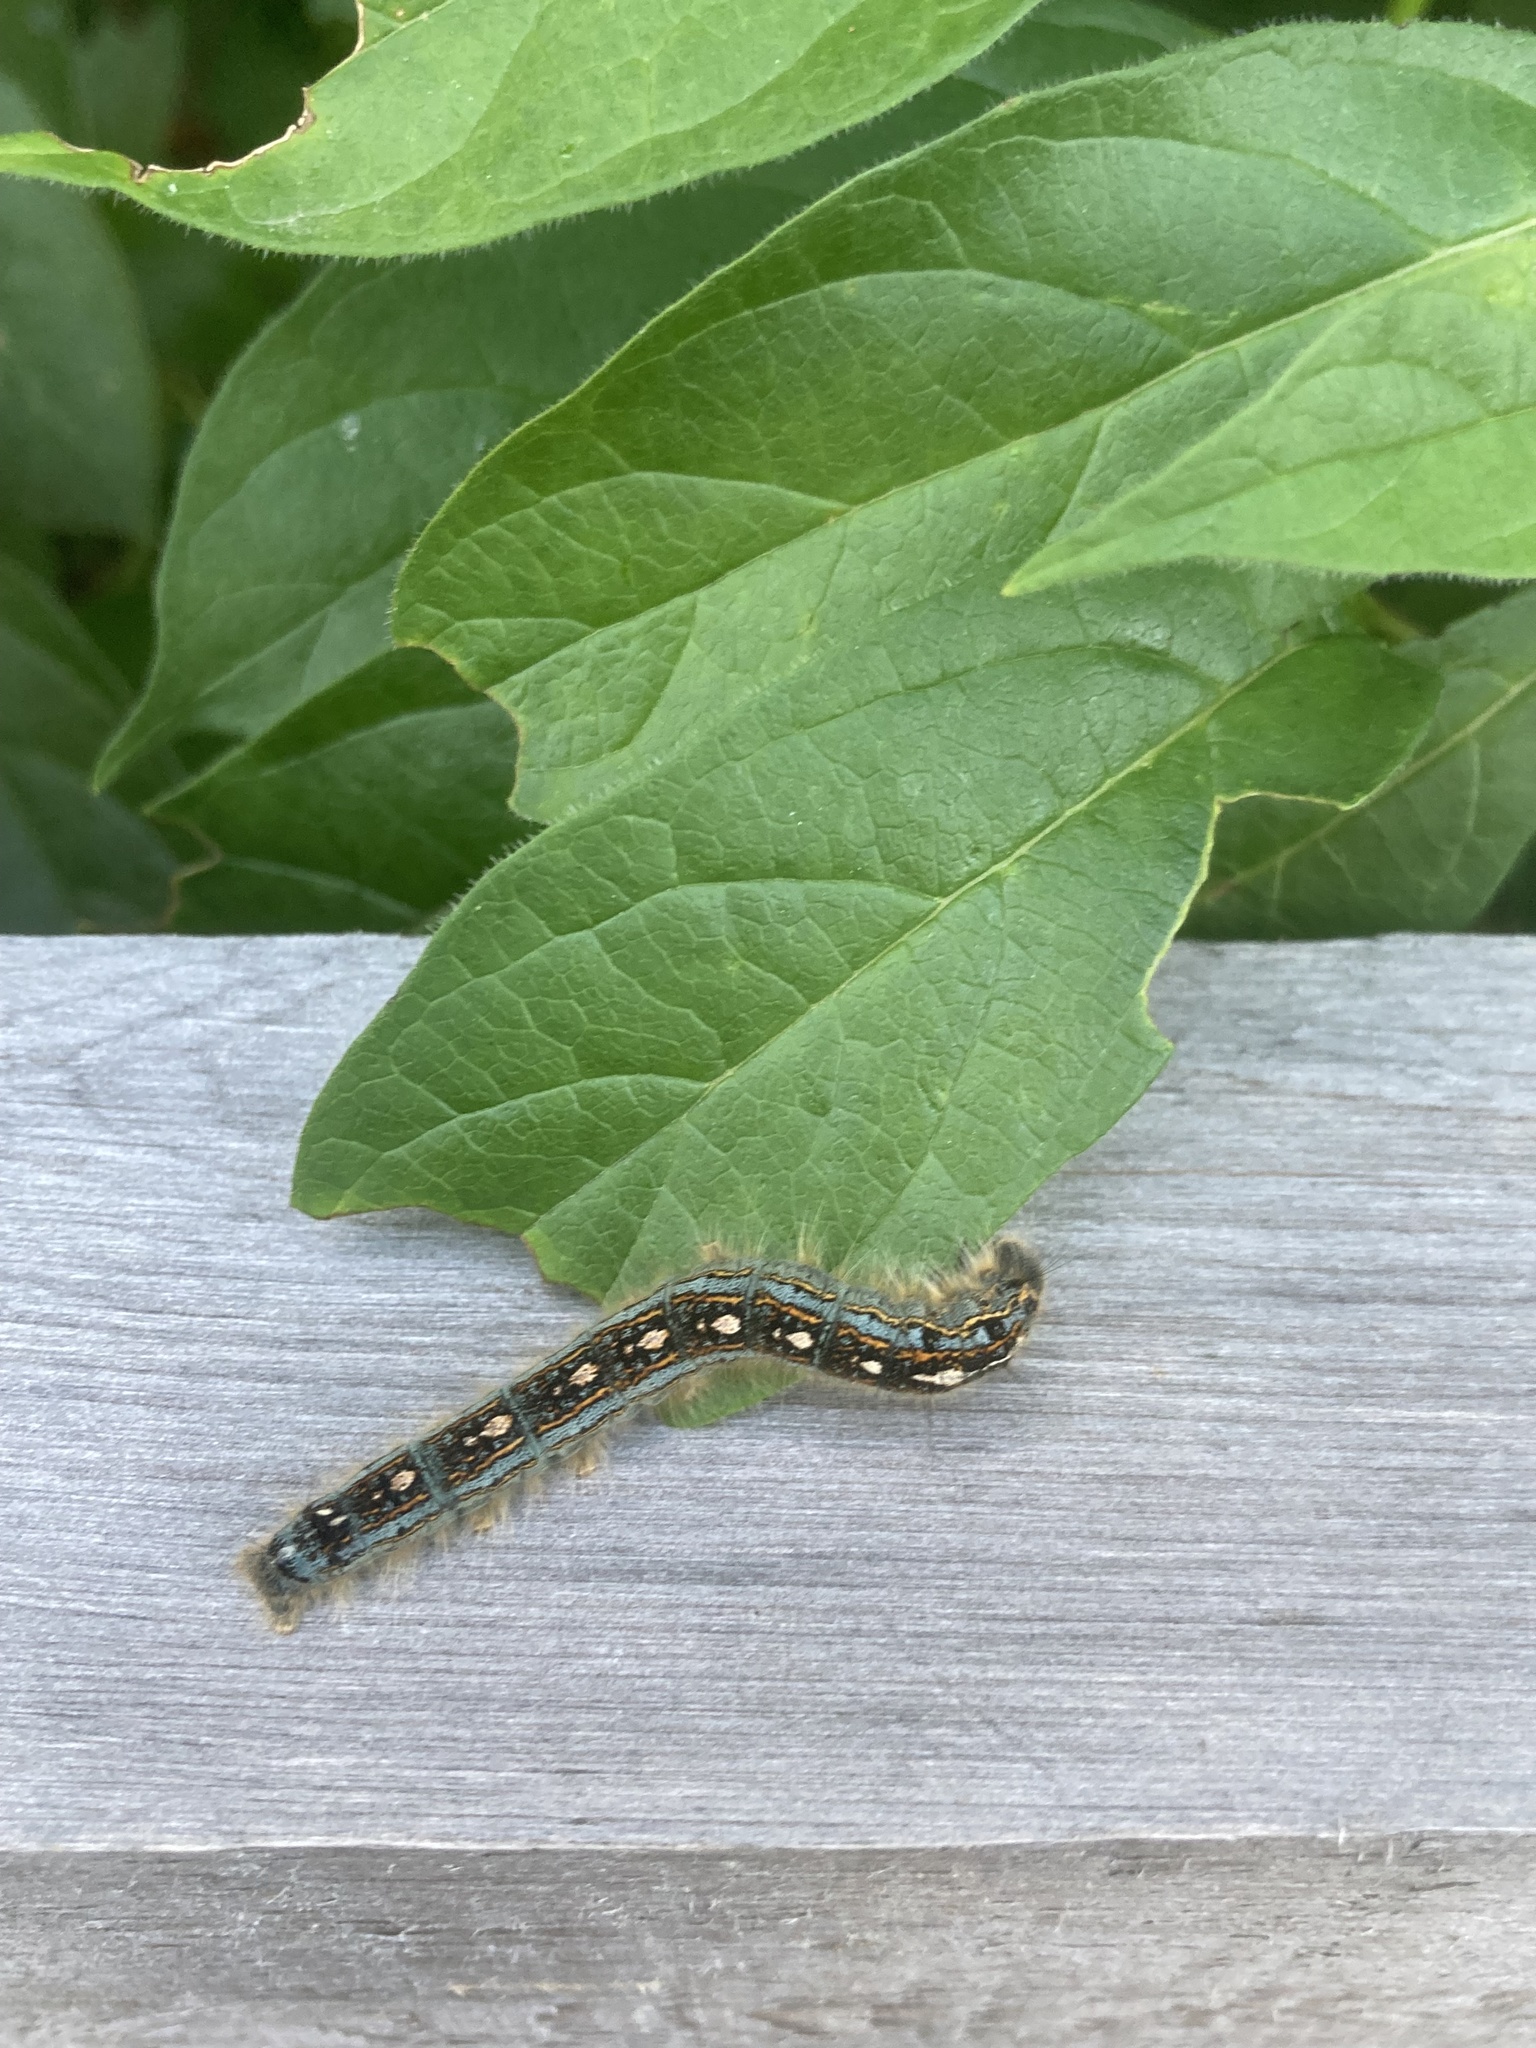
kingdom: Animalia
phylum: Arthropoda
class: Insecta
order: Lepidoptera
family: Lasiocampidae
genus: Malacosoma
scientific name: Malacosoma disstria
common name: Forest tent caterpillar
